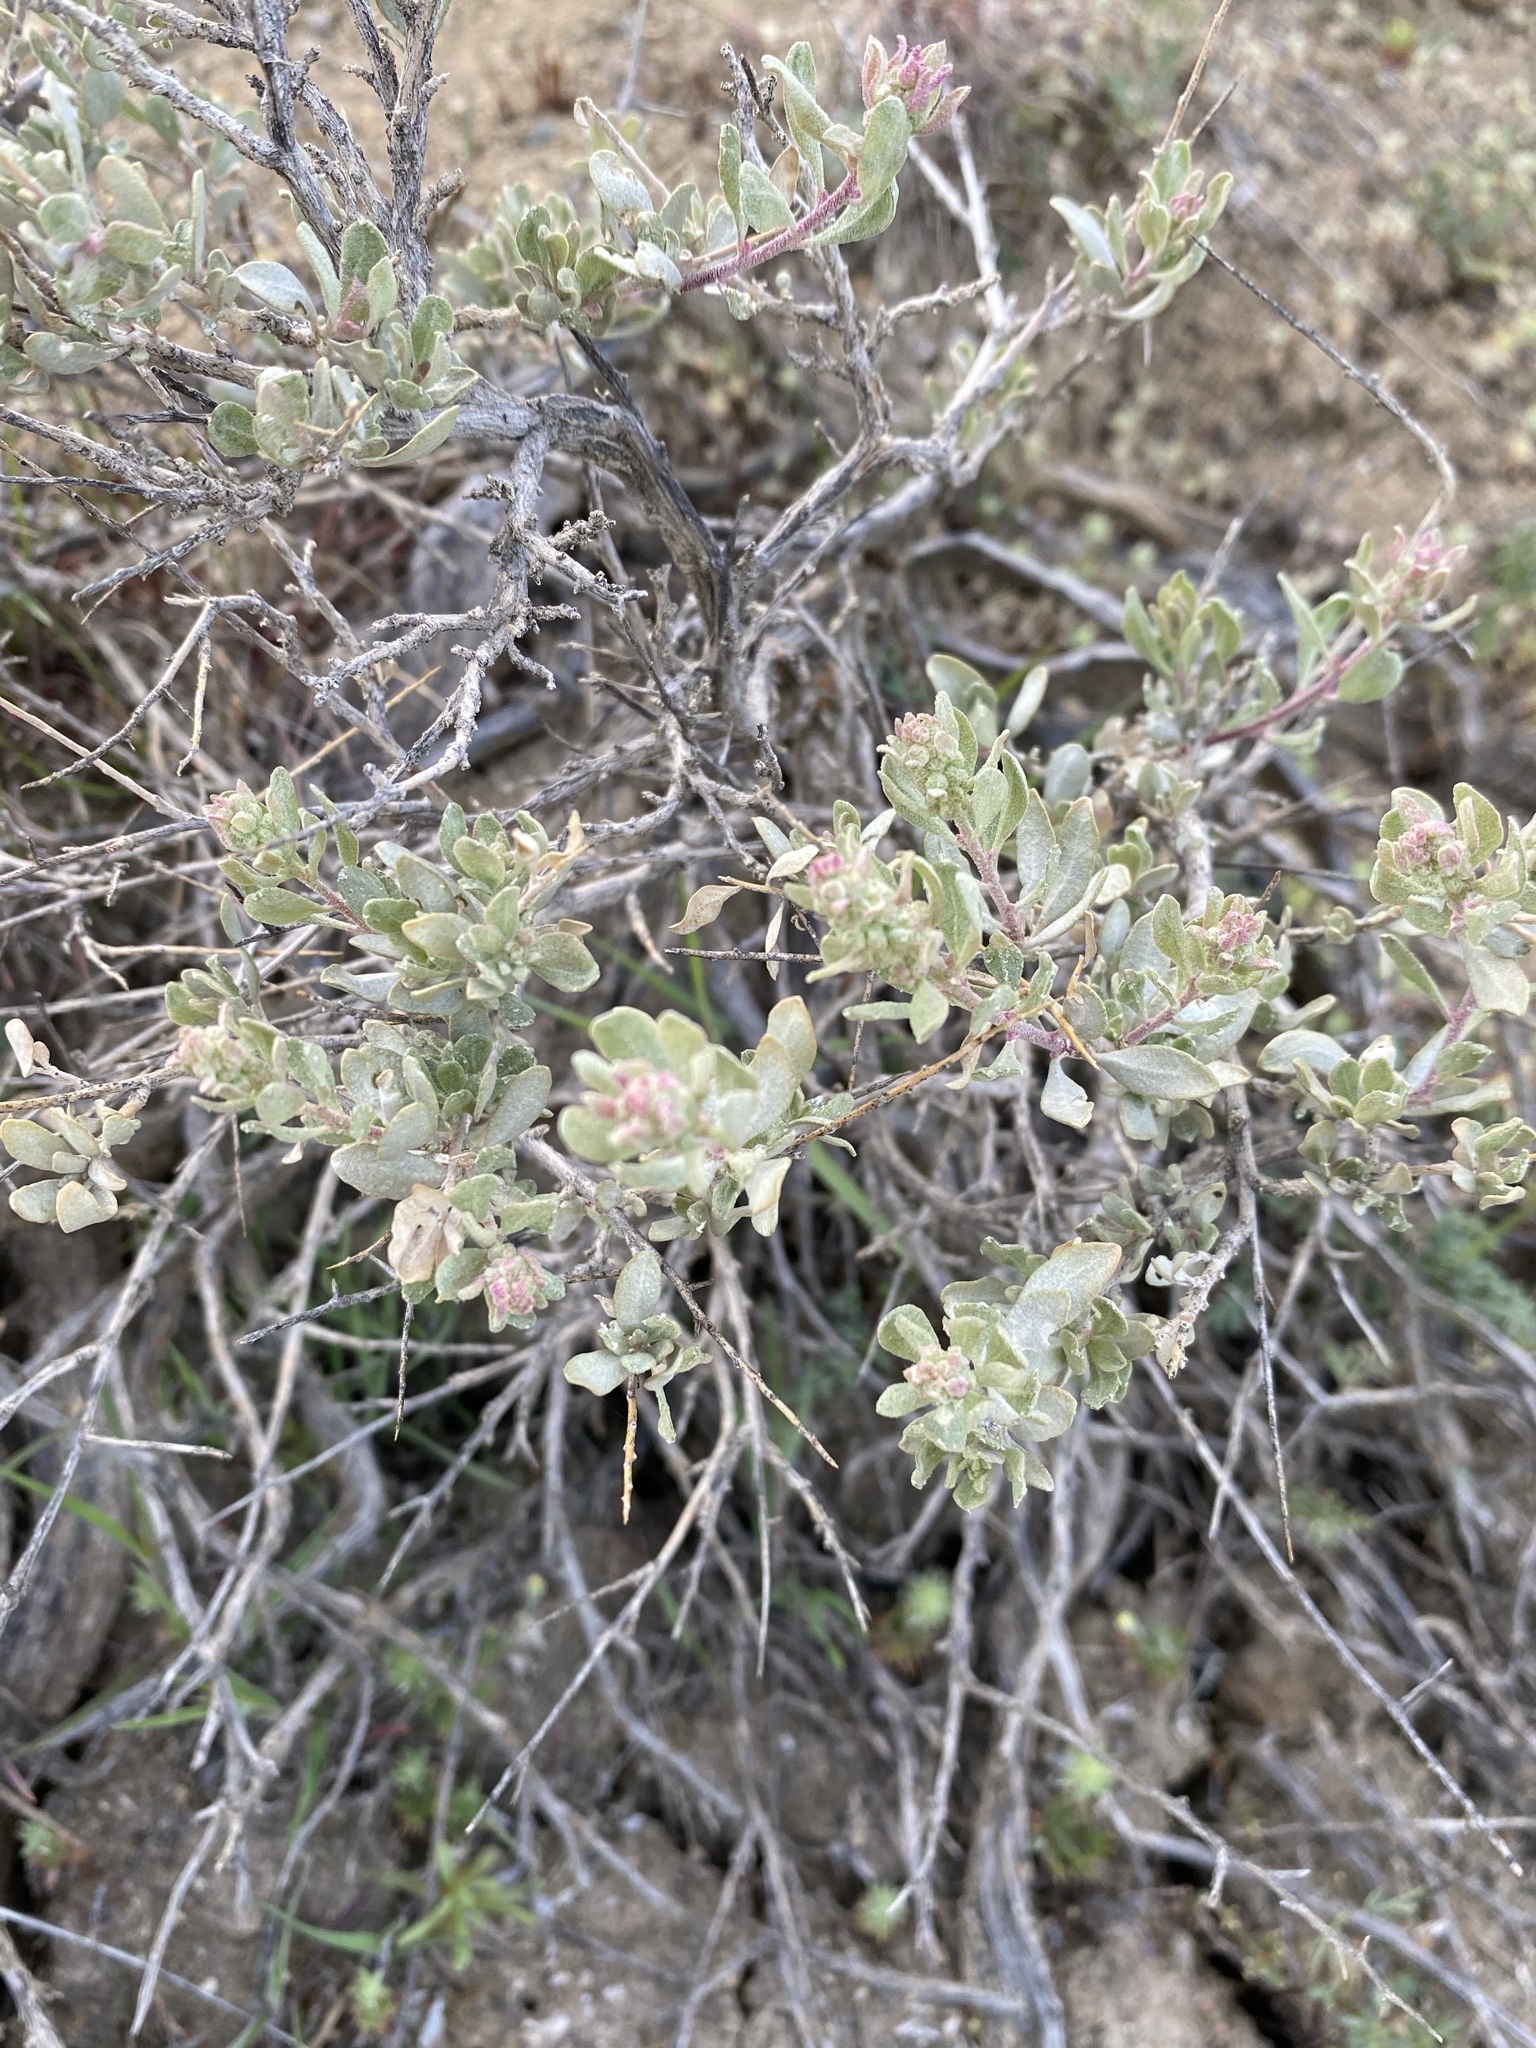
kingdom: Plantae
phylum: Tracheophyta
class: Magnoliopsida
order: Caryophyllales
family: Amaranthaceae
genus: Atriplex
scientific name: Atriplex confertifolia
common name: Shadscale
